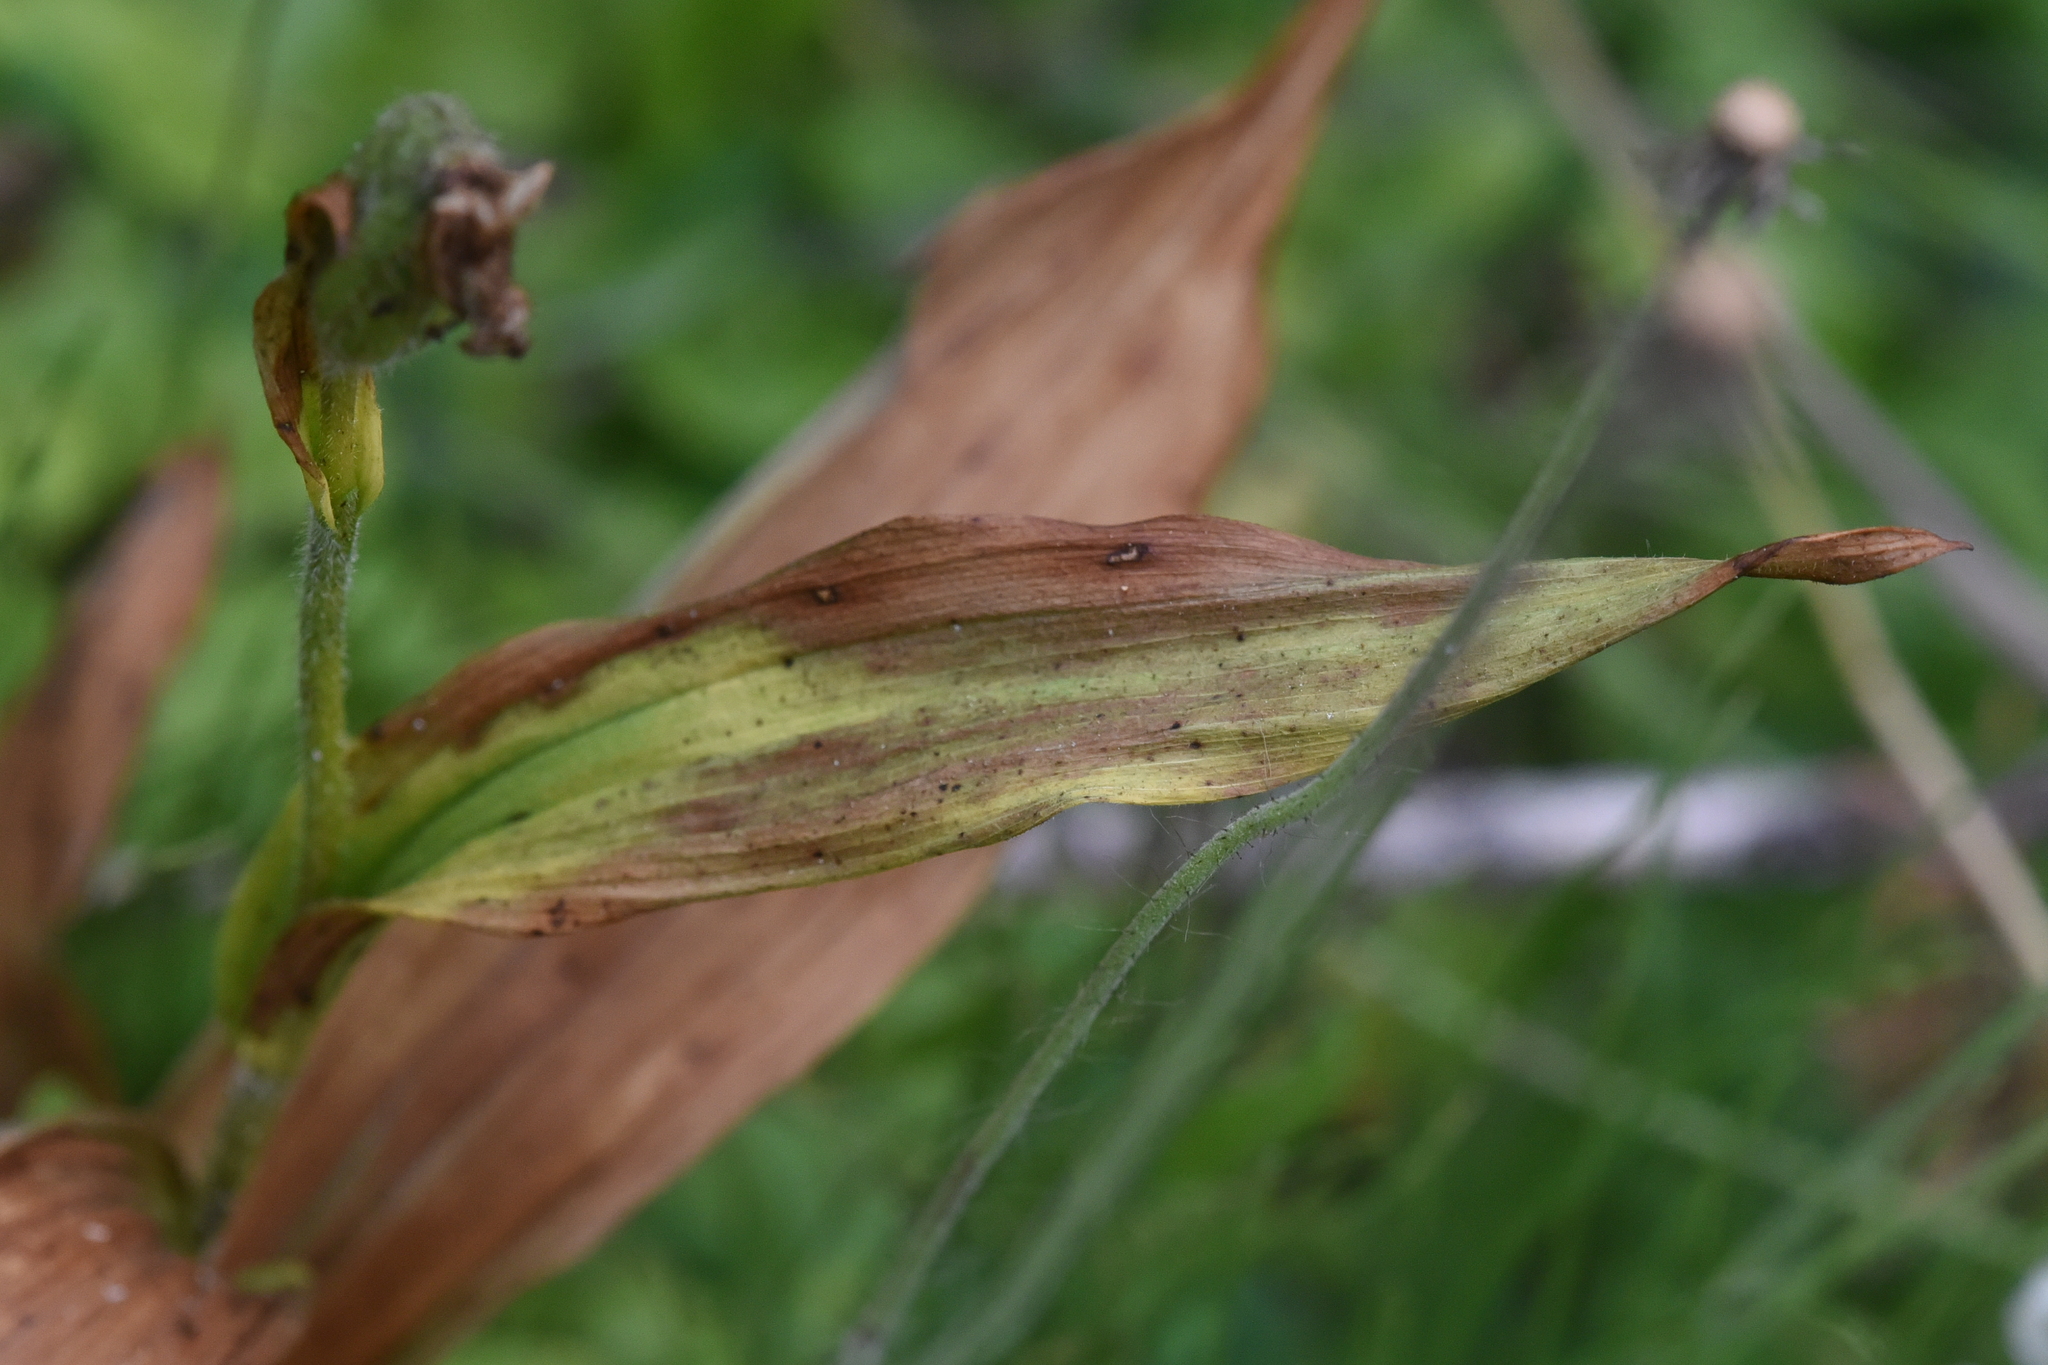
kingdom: Plantae
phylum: Tracheophyta
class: Liliopsida
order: Asparagales
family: Orchidaceae
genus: Cypripedium
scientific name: Cypripedium passerinum
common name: Sparrow's-egg lady's-slipper
